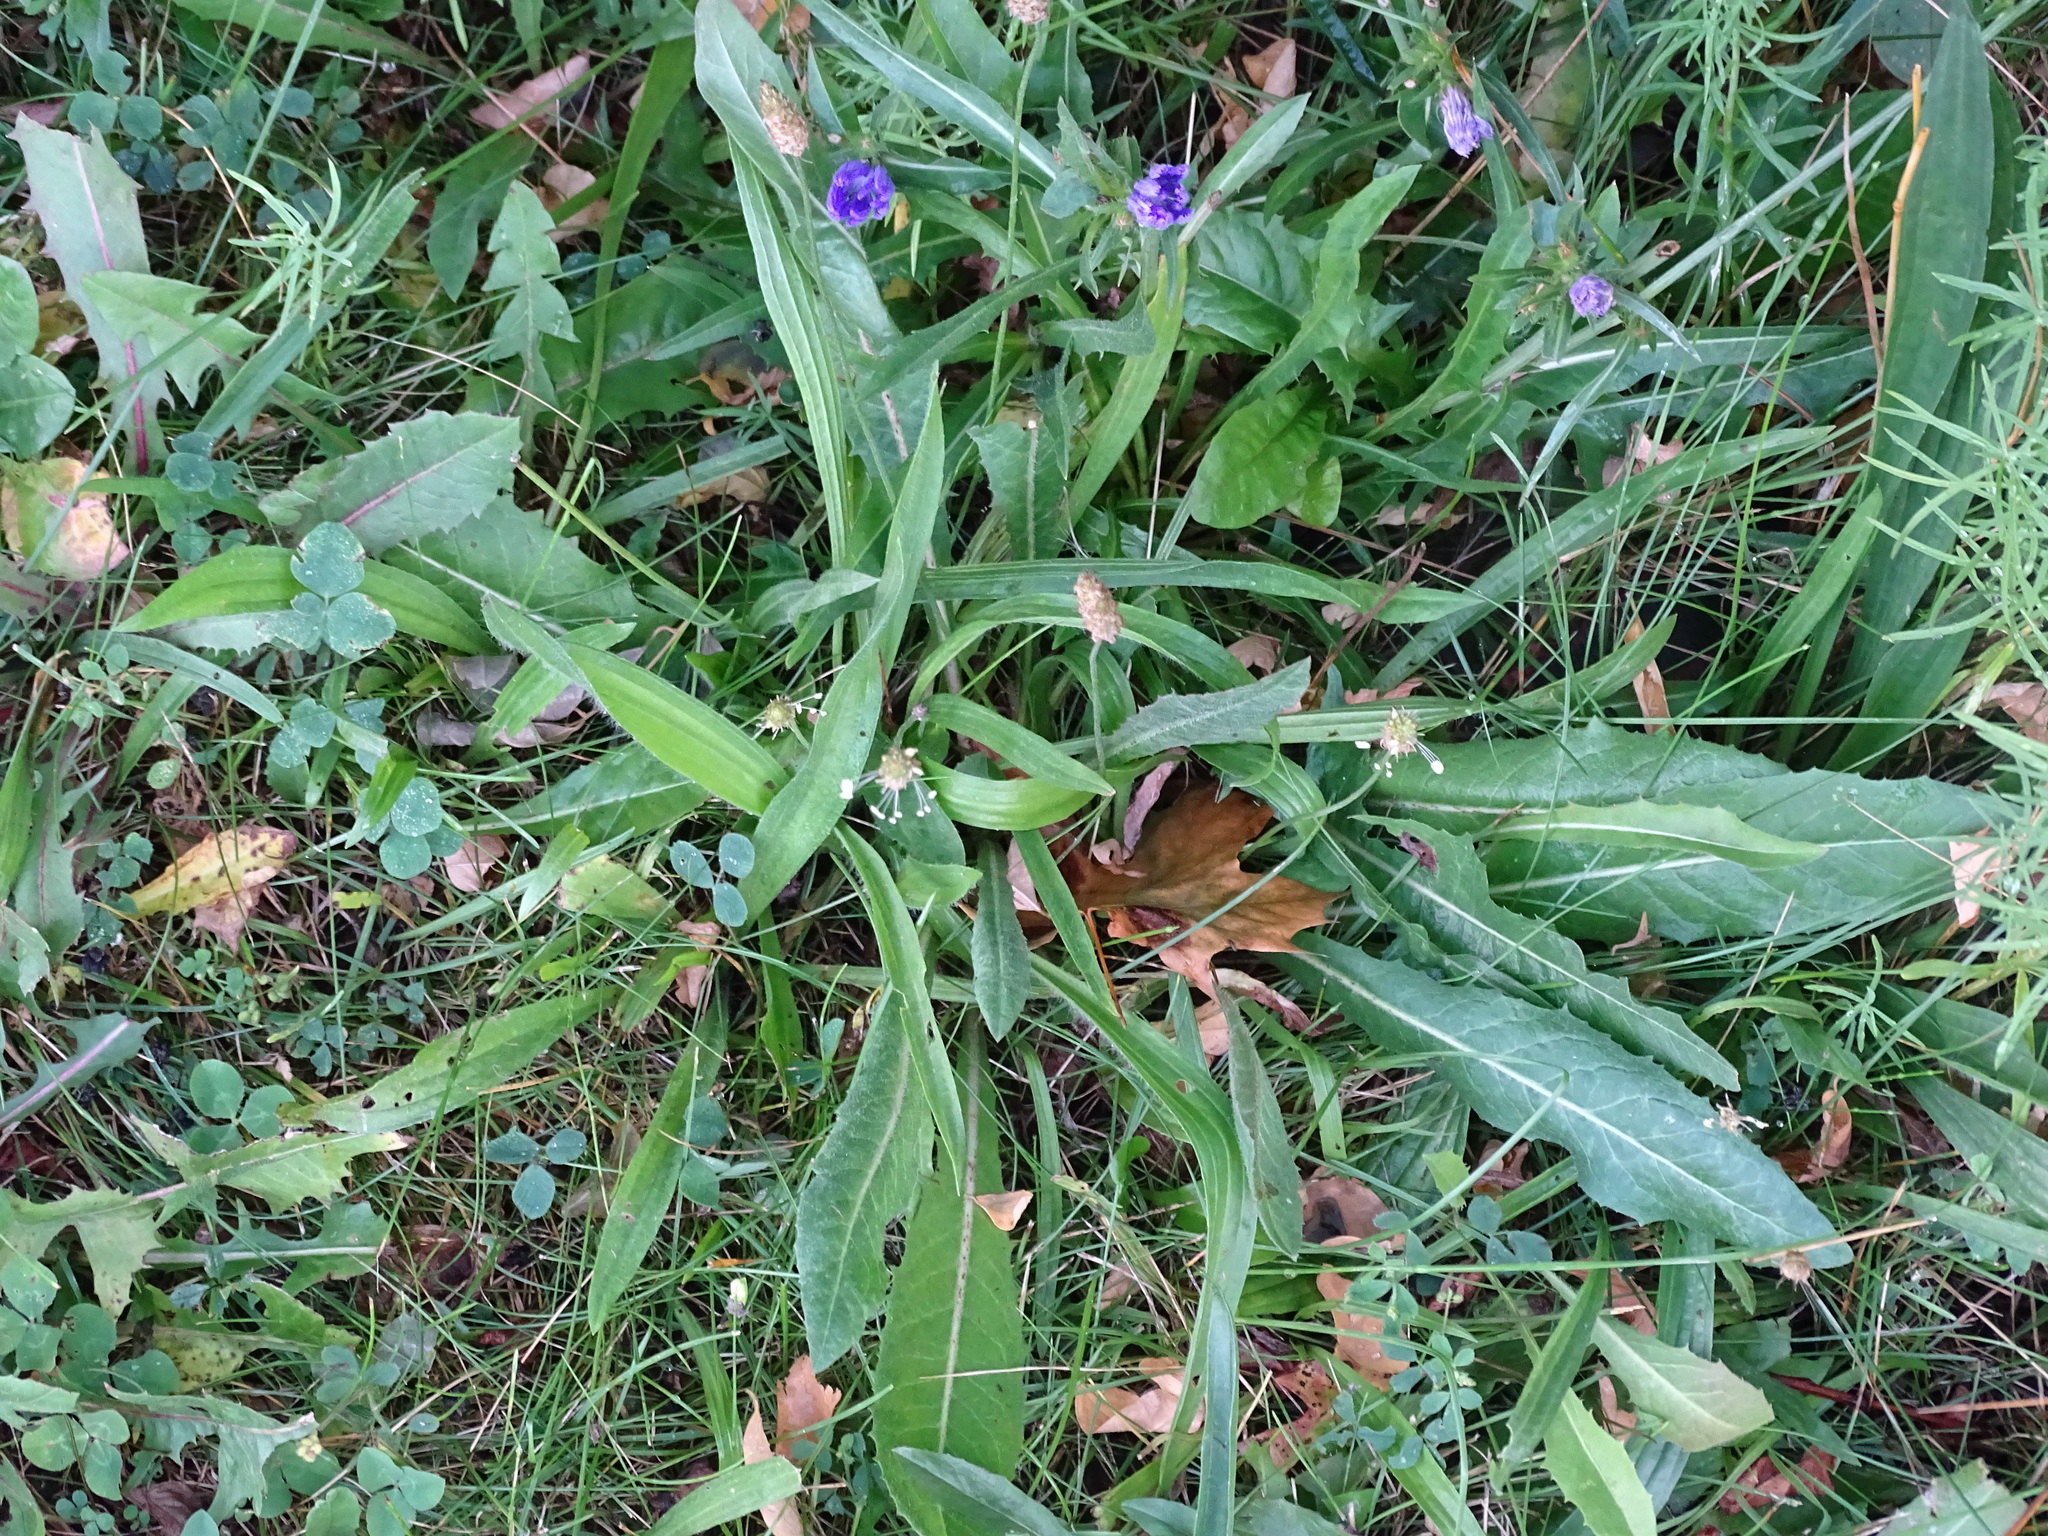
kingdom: Plantae
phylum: Tracheophyta
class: Magnoliopsida
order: Lamiales
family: Plantaginaceae
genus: Plantago
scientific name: Plantago lanceolata
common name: Ribwort plantain
